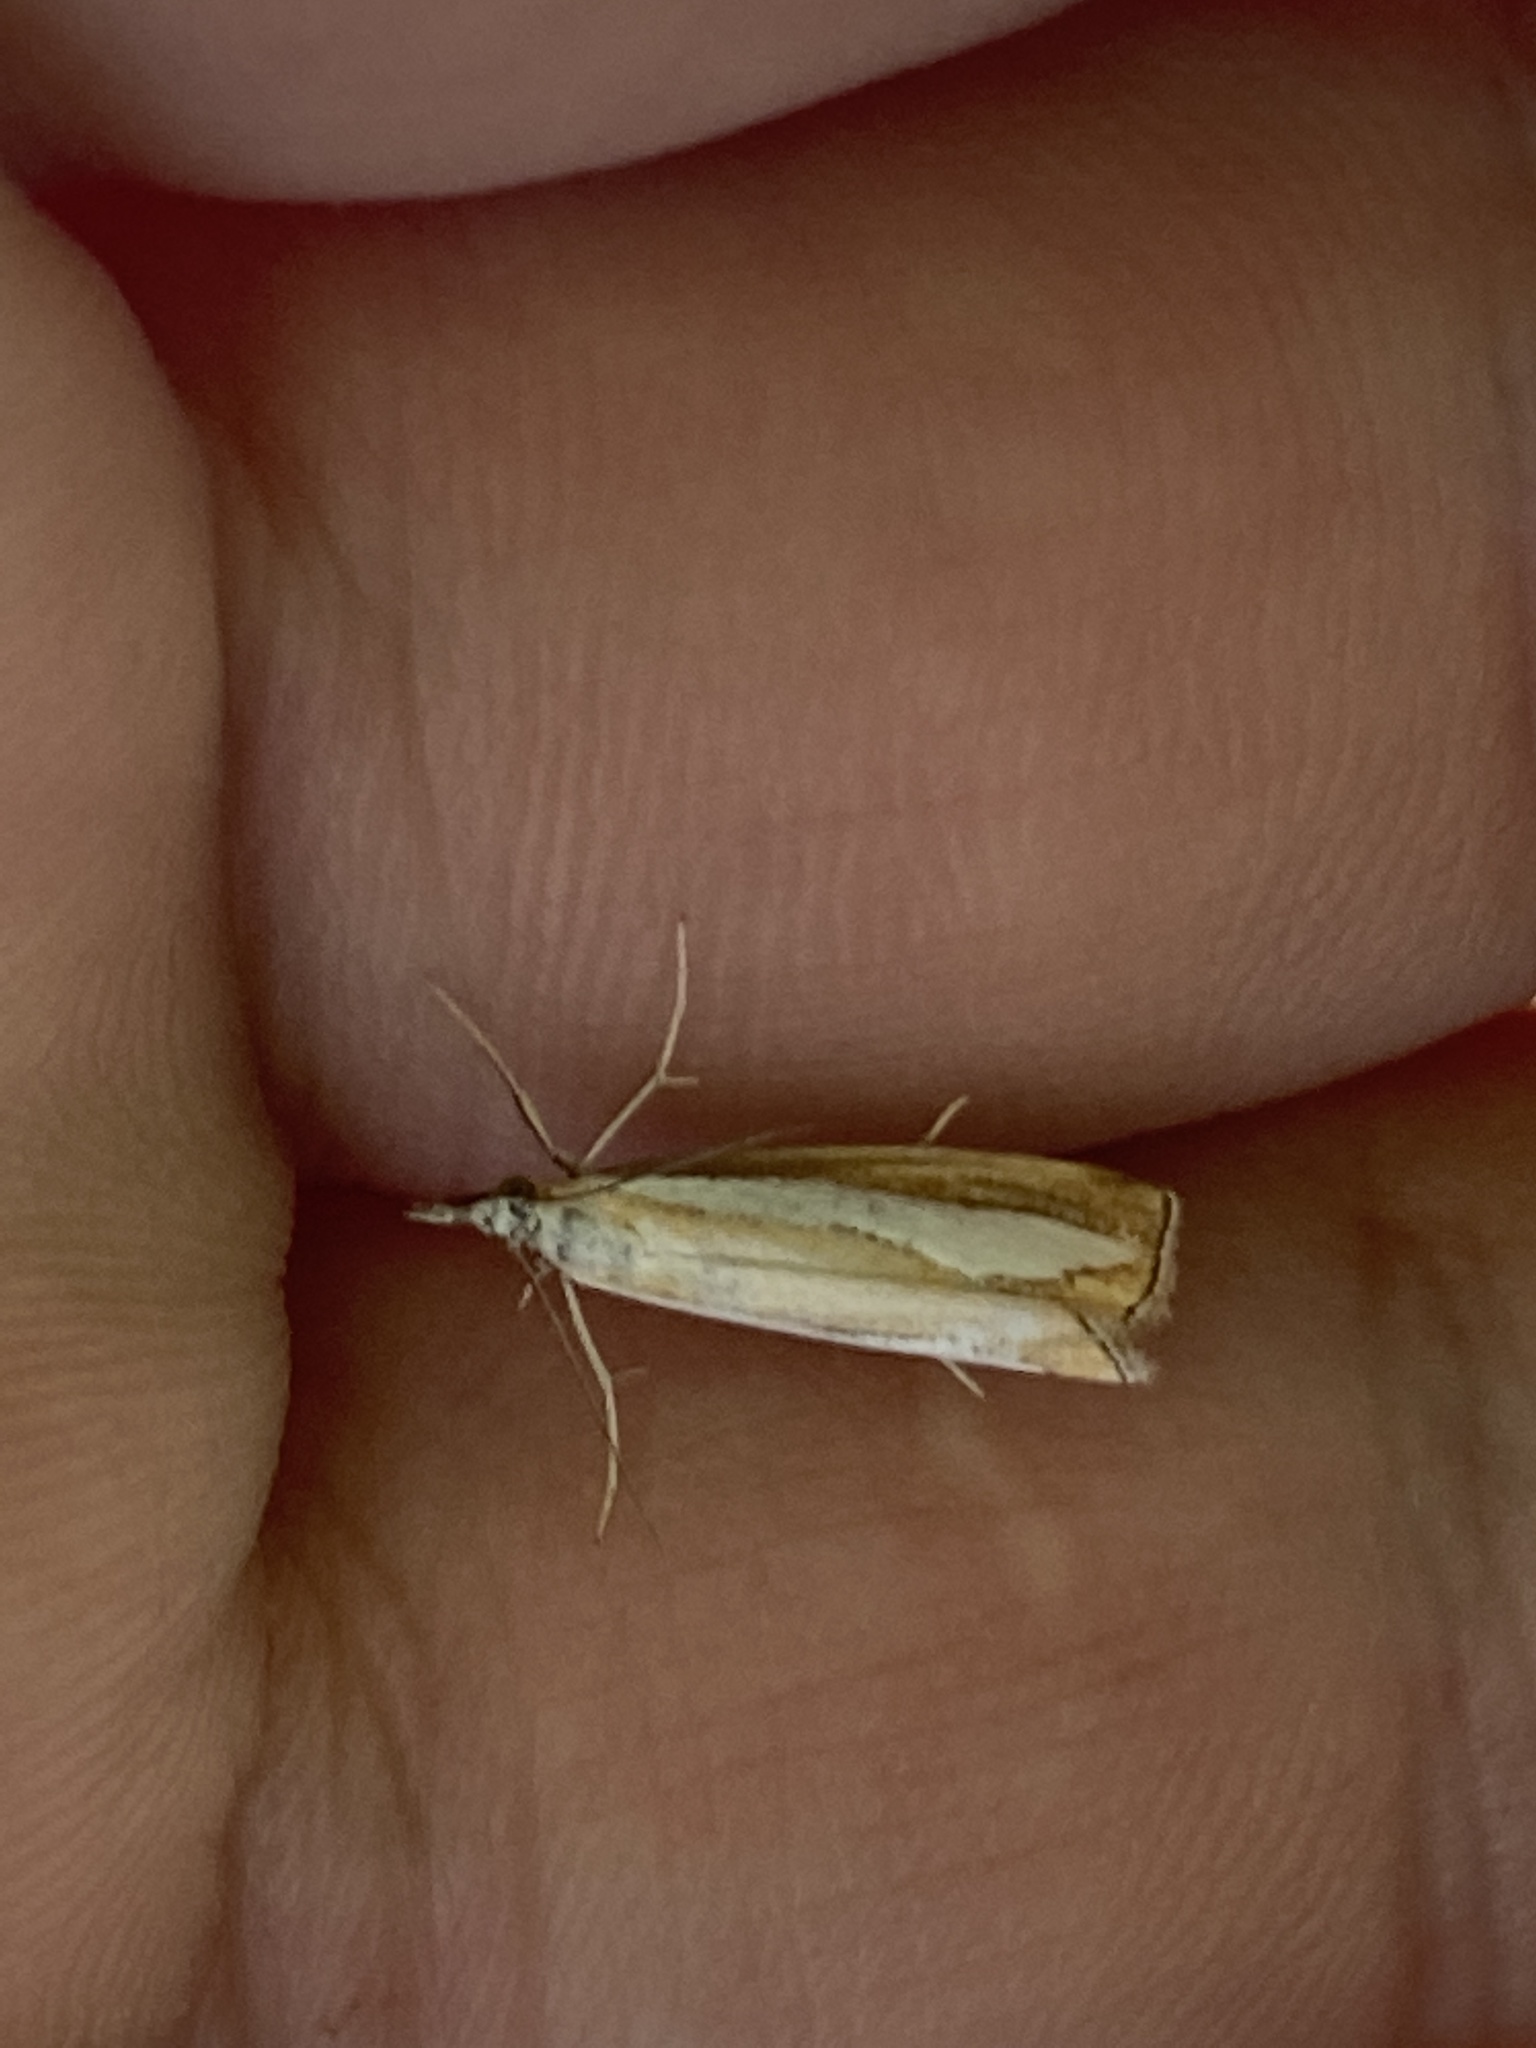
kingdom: Animalia
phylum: Arthropoda
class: Insecta
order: Lepidoptera
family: Crambidae
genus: Catoptria
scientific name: Catoptria margaritellus
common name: Pearl-band grass veneer
